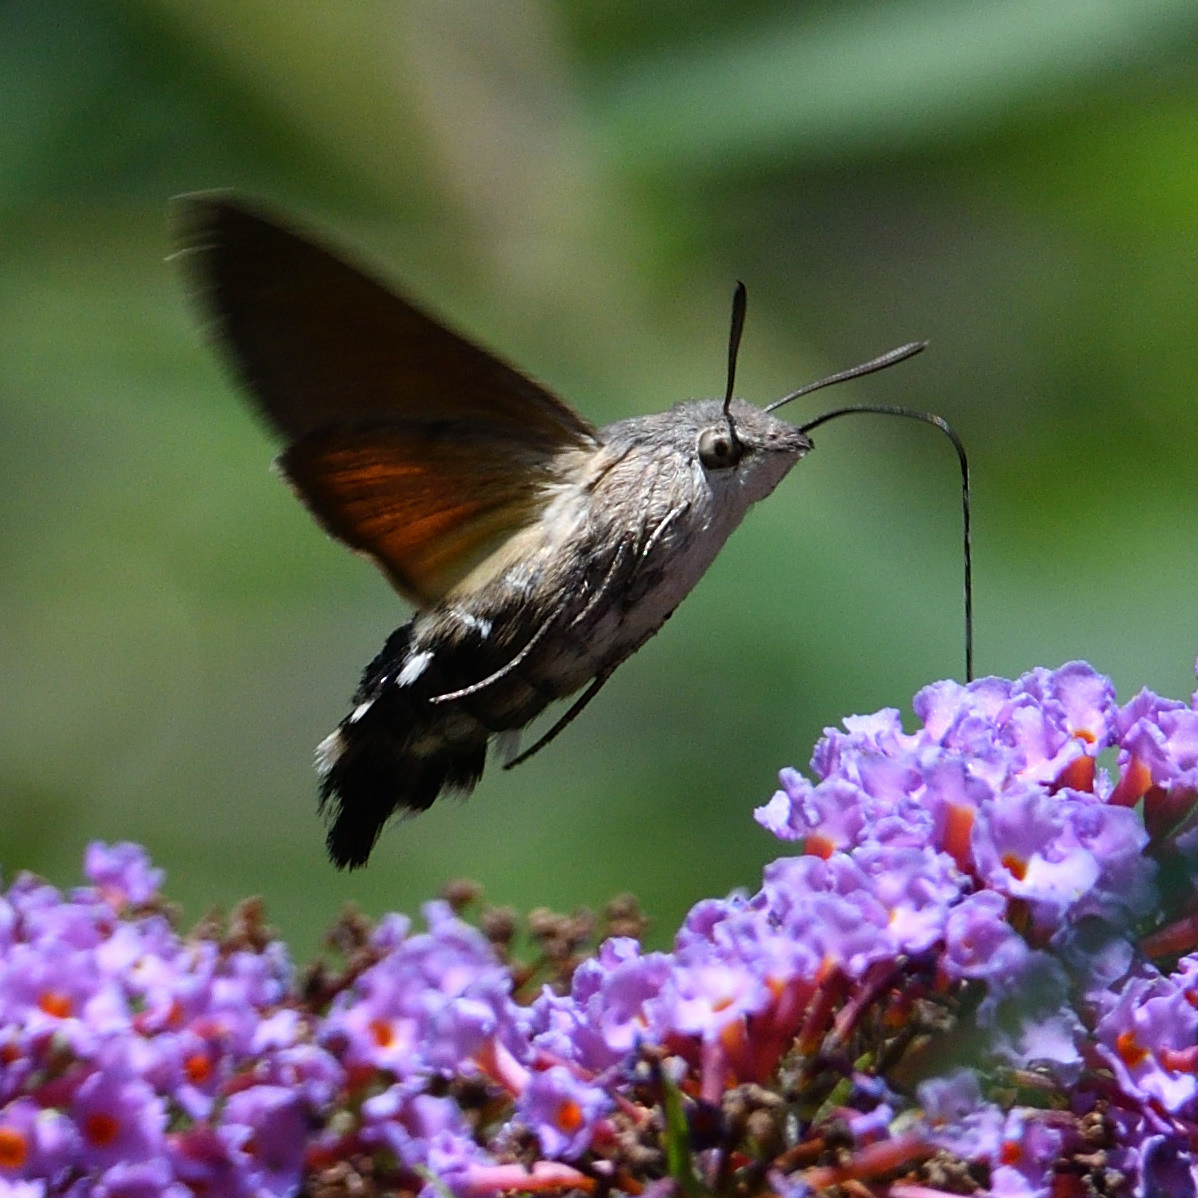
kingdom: Animalia
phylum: Arthropoda
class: Insecta
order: Lepidoptera
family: Sphingidae
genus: Macroglossum
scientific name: Macroglossum stellatarum
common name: Humming-bird hawk-moth
